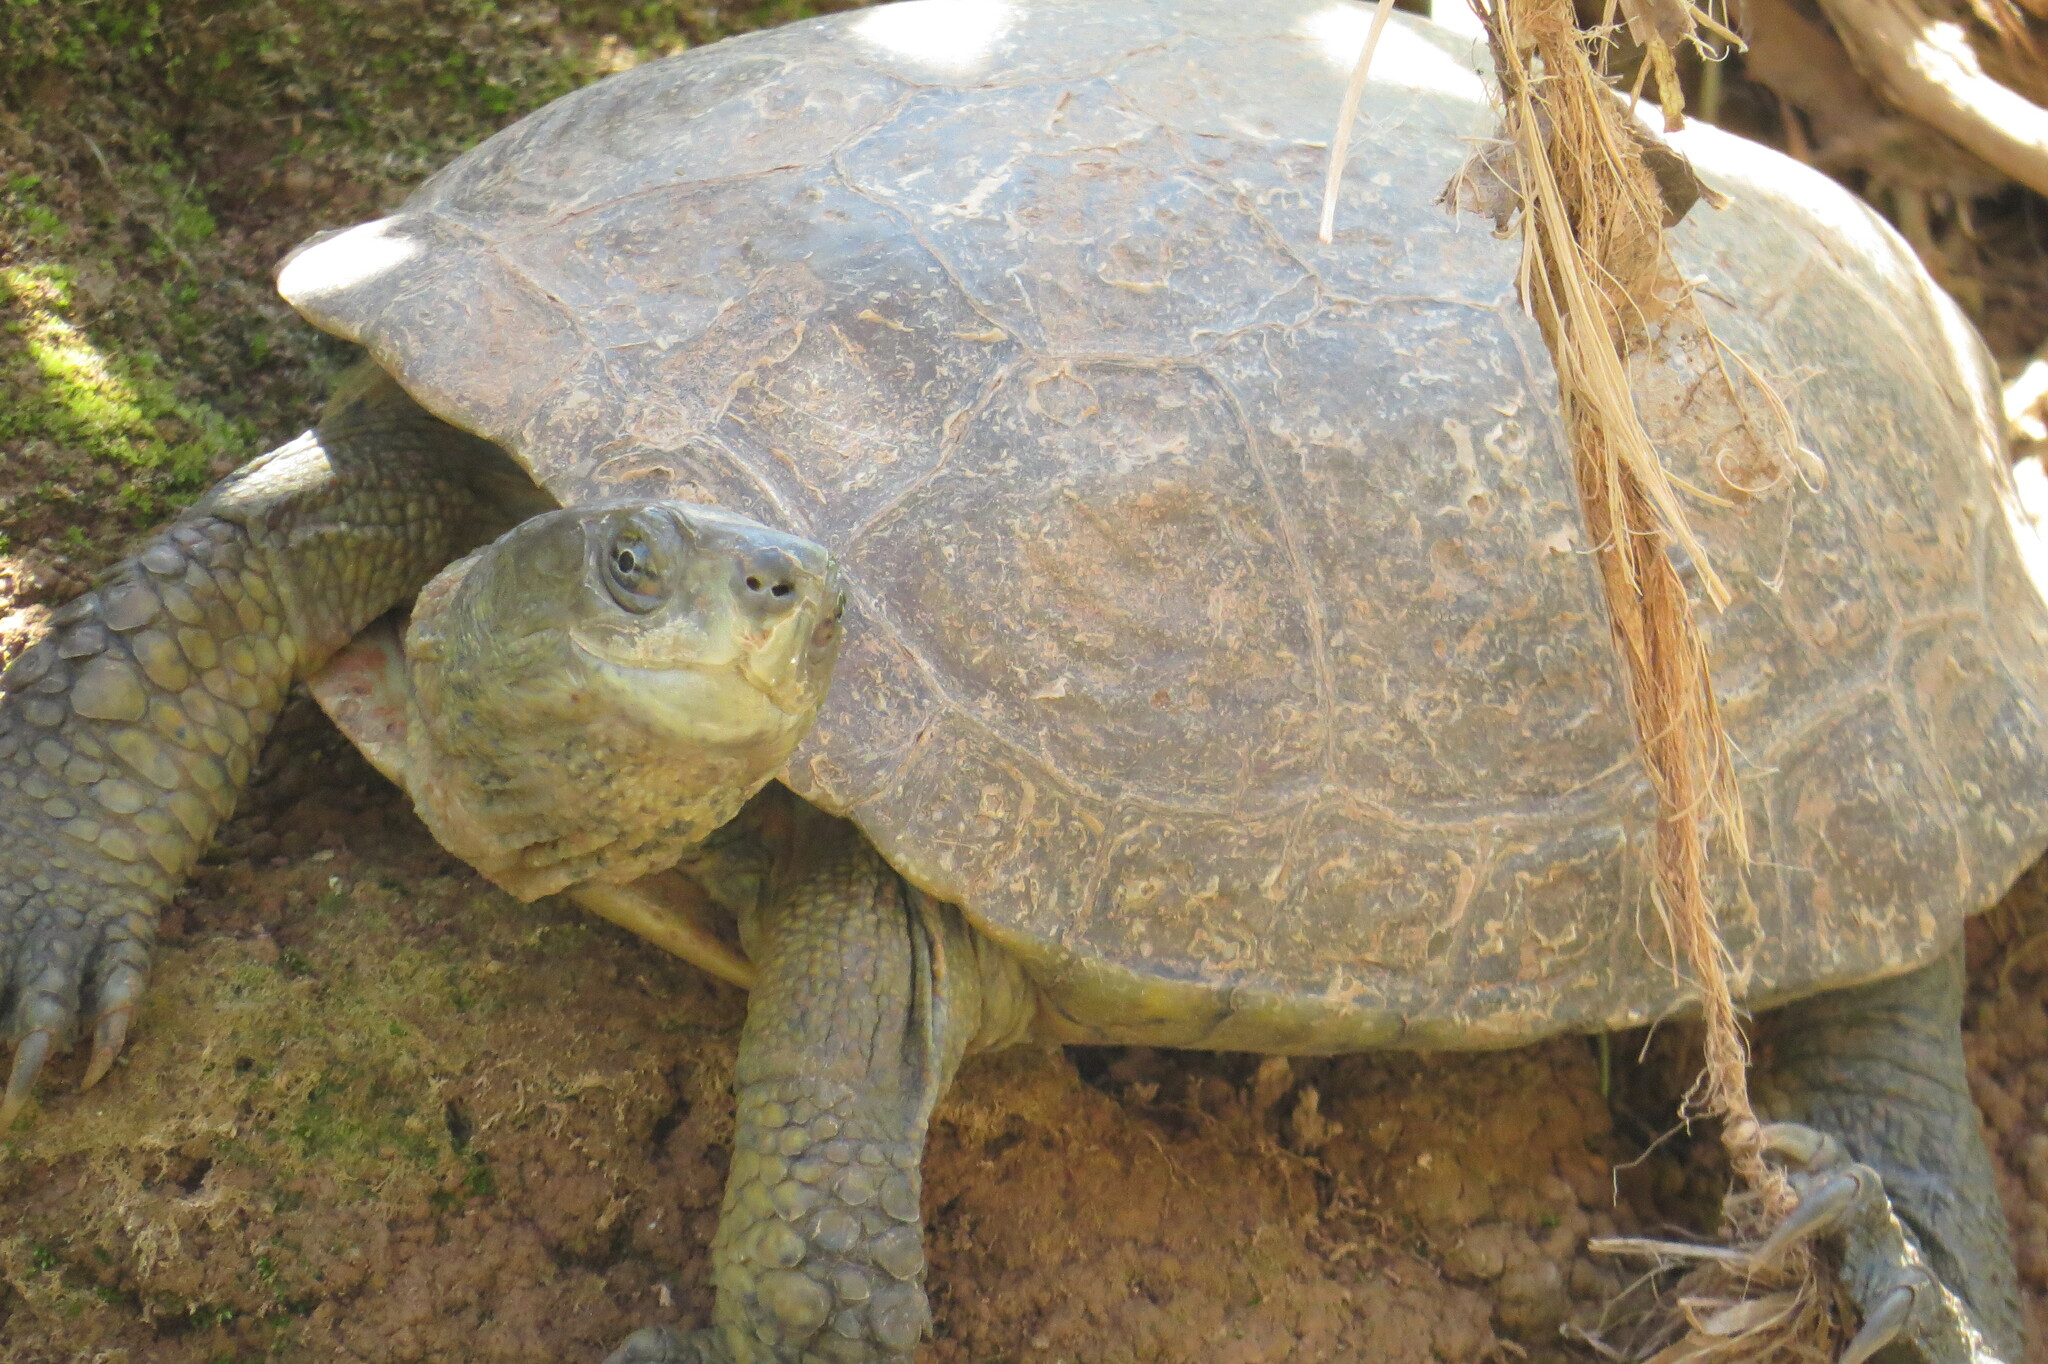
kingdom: Animalia
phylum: Chordata
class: Testudines
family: Geoemydidae
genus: Mauremys
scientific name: Mauremys leprosa
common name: Mediterranean pond turtle
